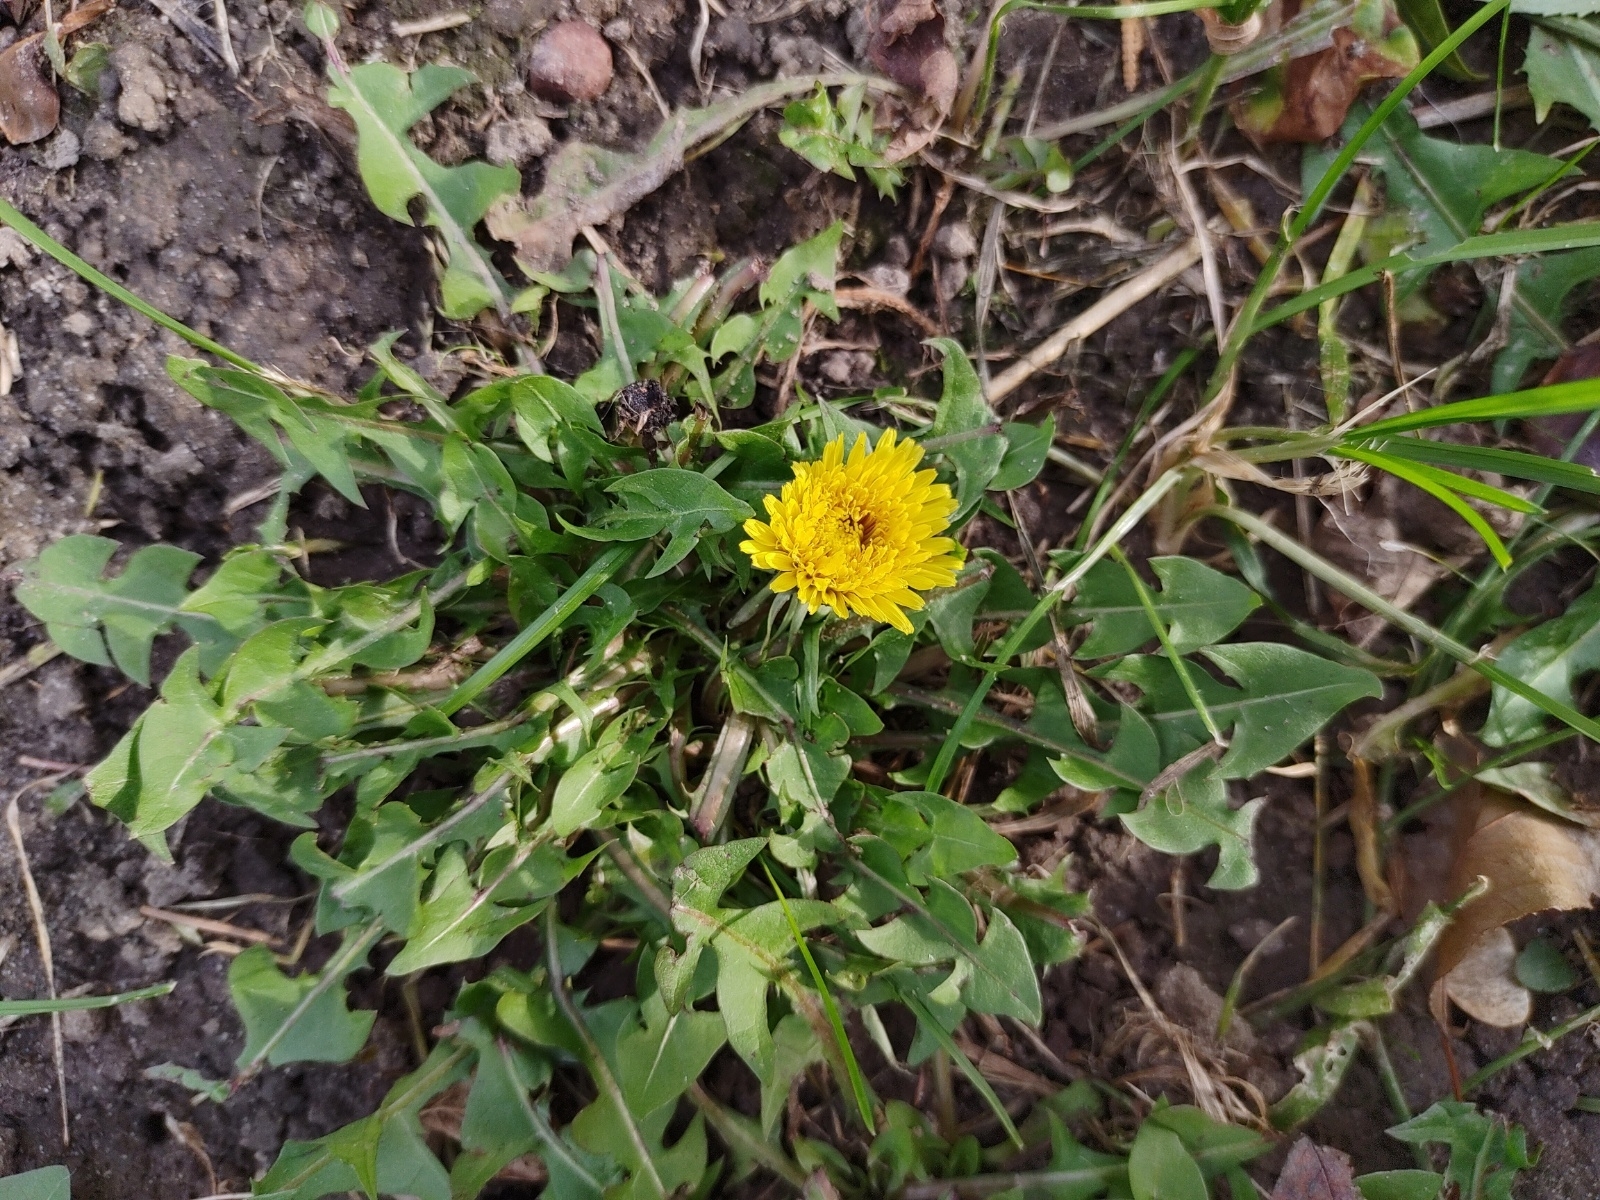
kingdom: Plantae
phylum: Tracheophyta
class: Magnoliopsida
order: Asterales
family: Asteraceae
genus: Taraxacum
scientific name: Taraxacum officinale
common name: Common dandelion
